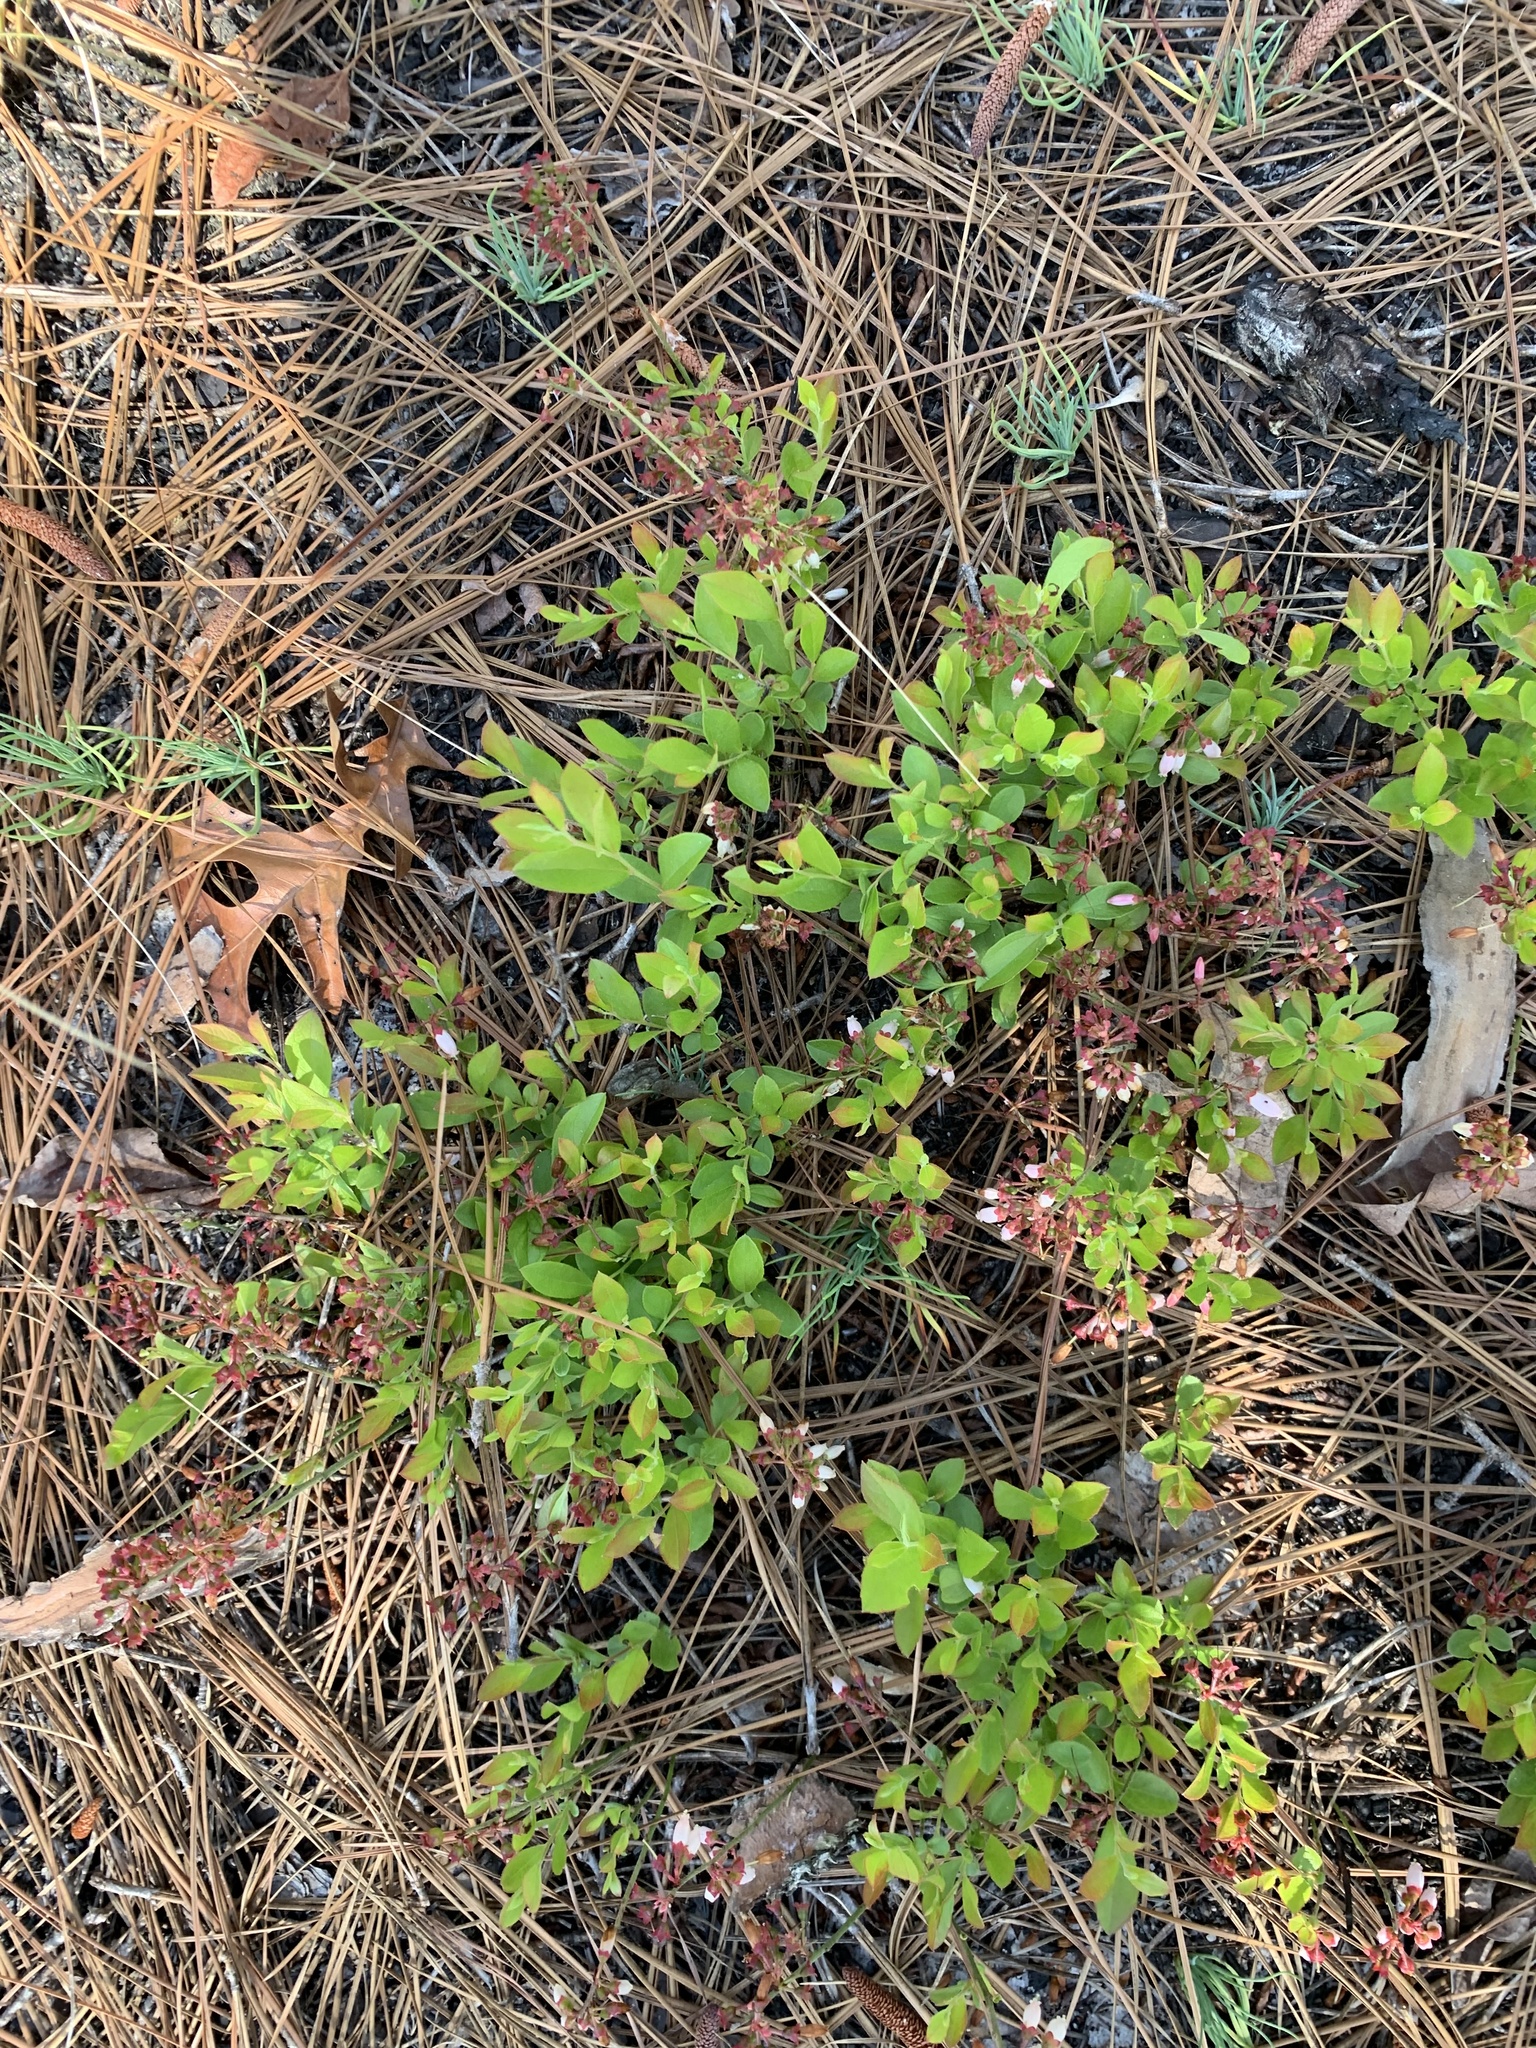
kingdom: Plantae
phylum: Tracheophyta
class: Magnoliopsida
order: Ericales
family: Ericaceae
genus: Vaccinium
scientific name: Vaccinium tenellum
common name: Southern blueberry
